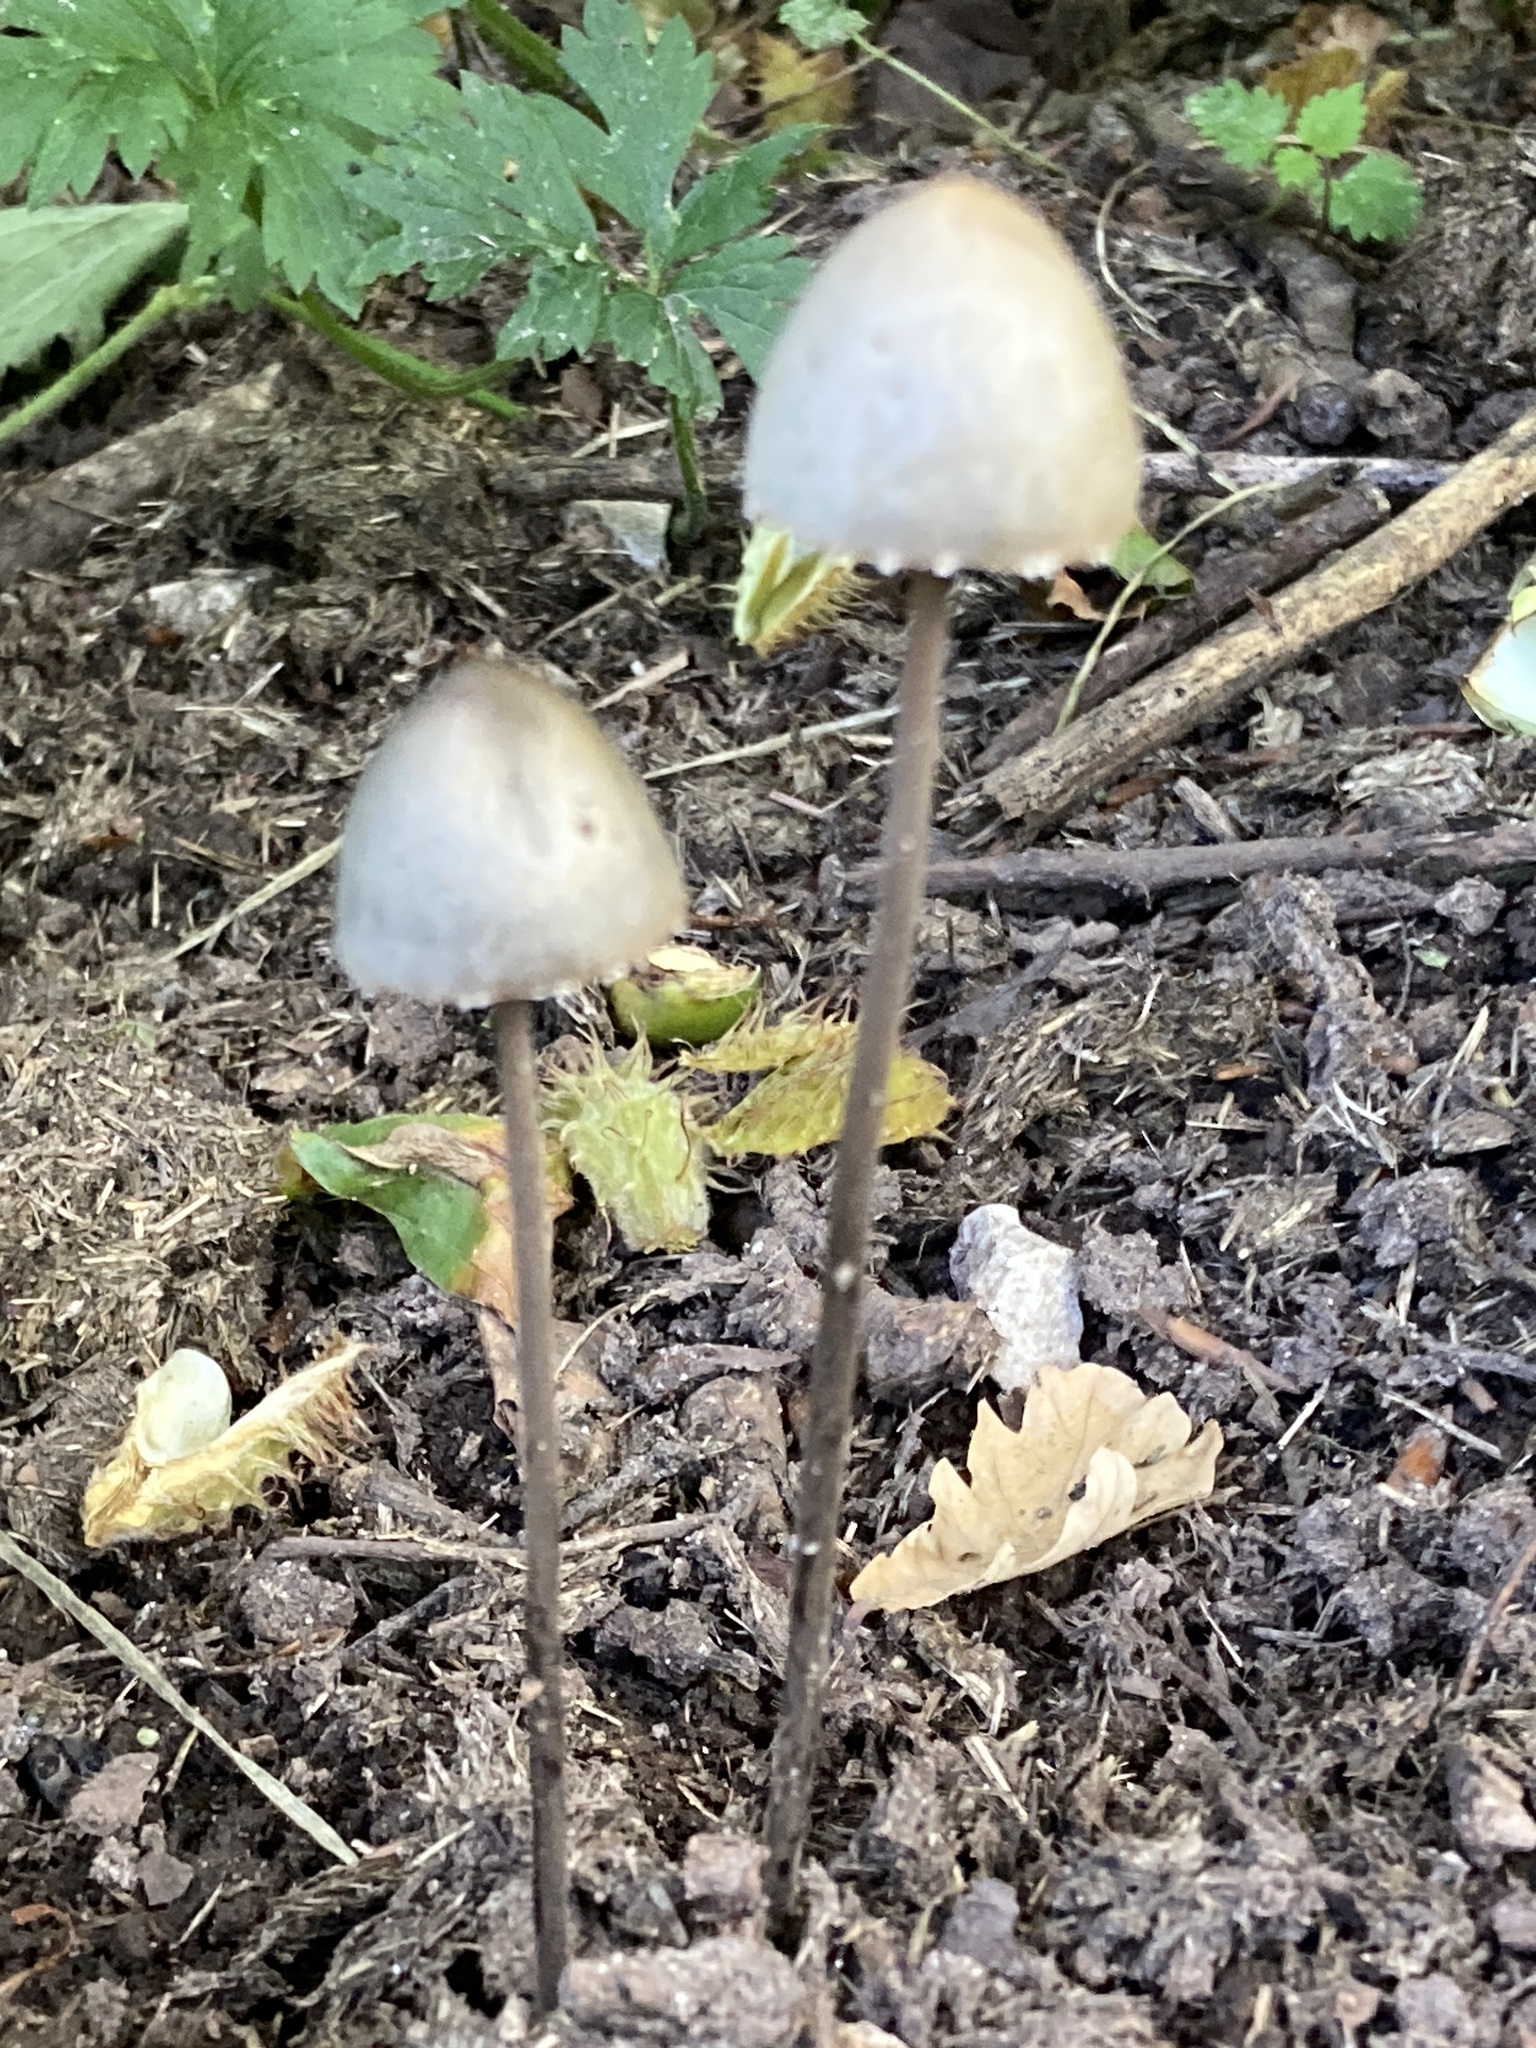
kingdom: Fungi
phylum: Basidiomycota
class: Agaricomycetes
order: Agaricales
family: Bolbitiaceae
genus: Panaeolus
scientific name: Panaeolus papilionaceus
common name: Petticoat mottlegill
